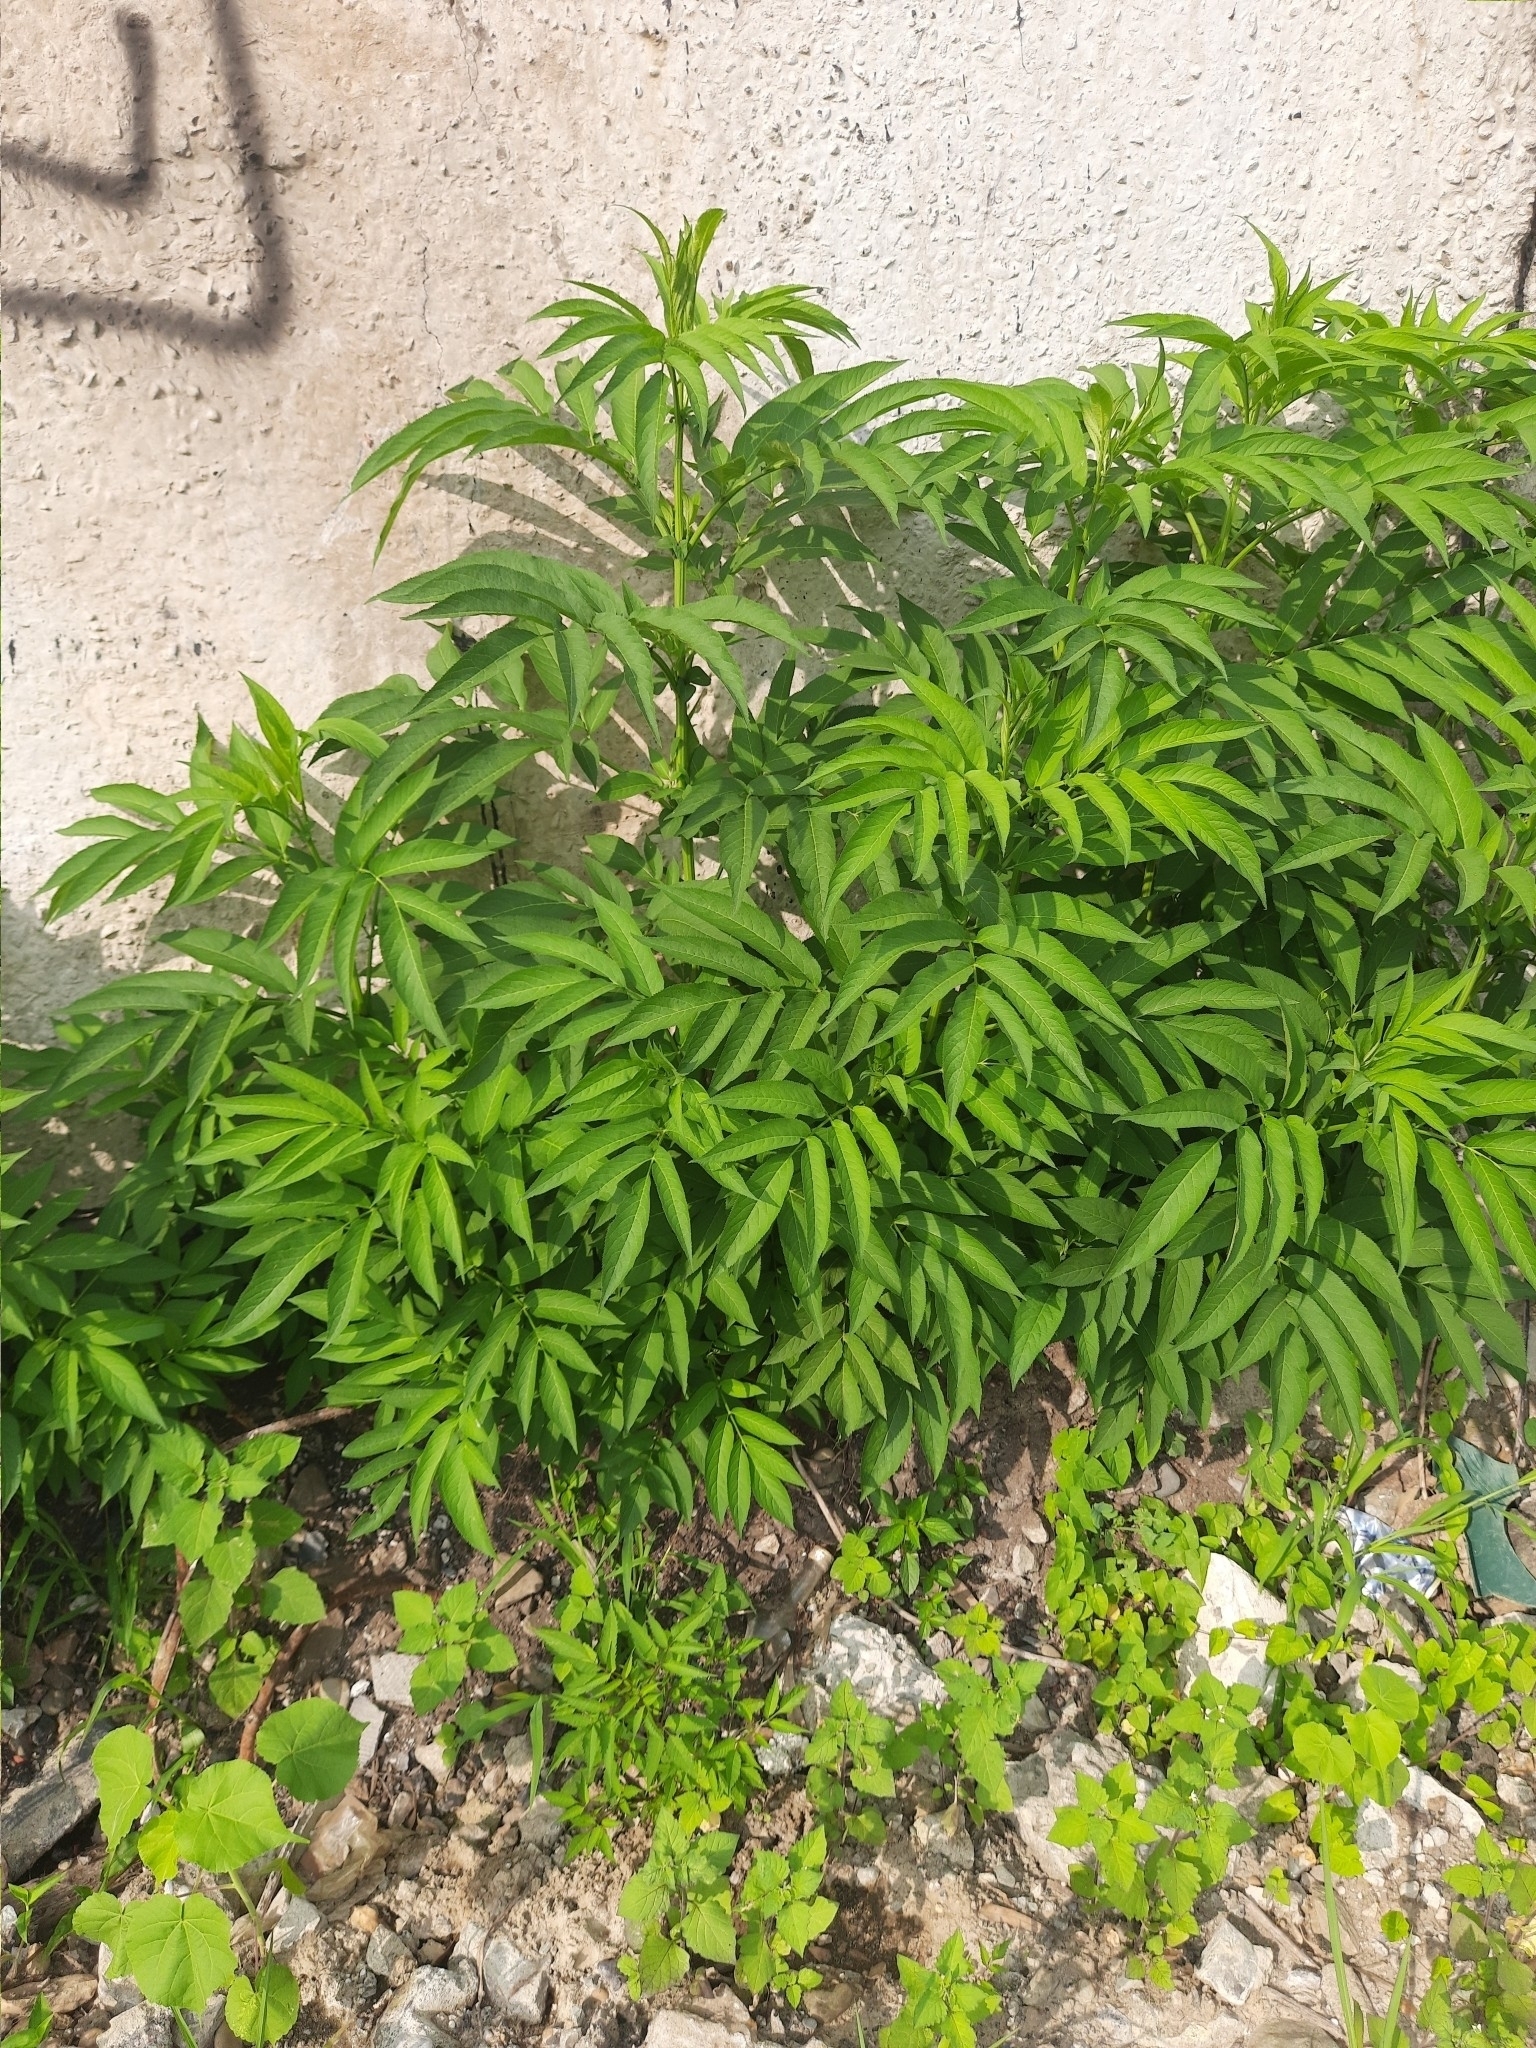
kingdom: Plantae
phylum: Tracheophyta
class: Magnoliopsida
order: Dipsacales
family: Viburnaceae
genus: Sambucus
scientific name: Sambucus ebulus
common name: Dwarf elder
